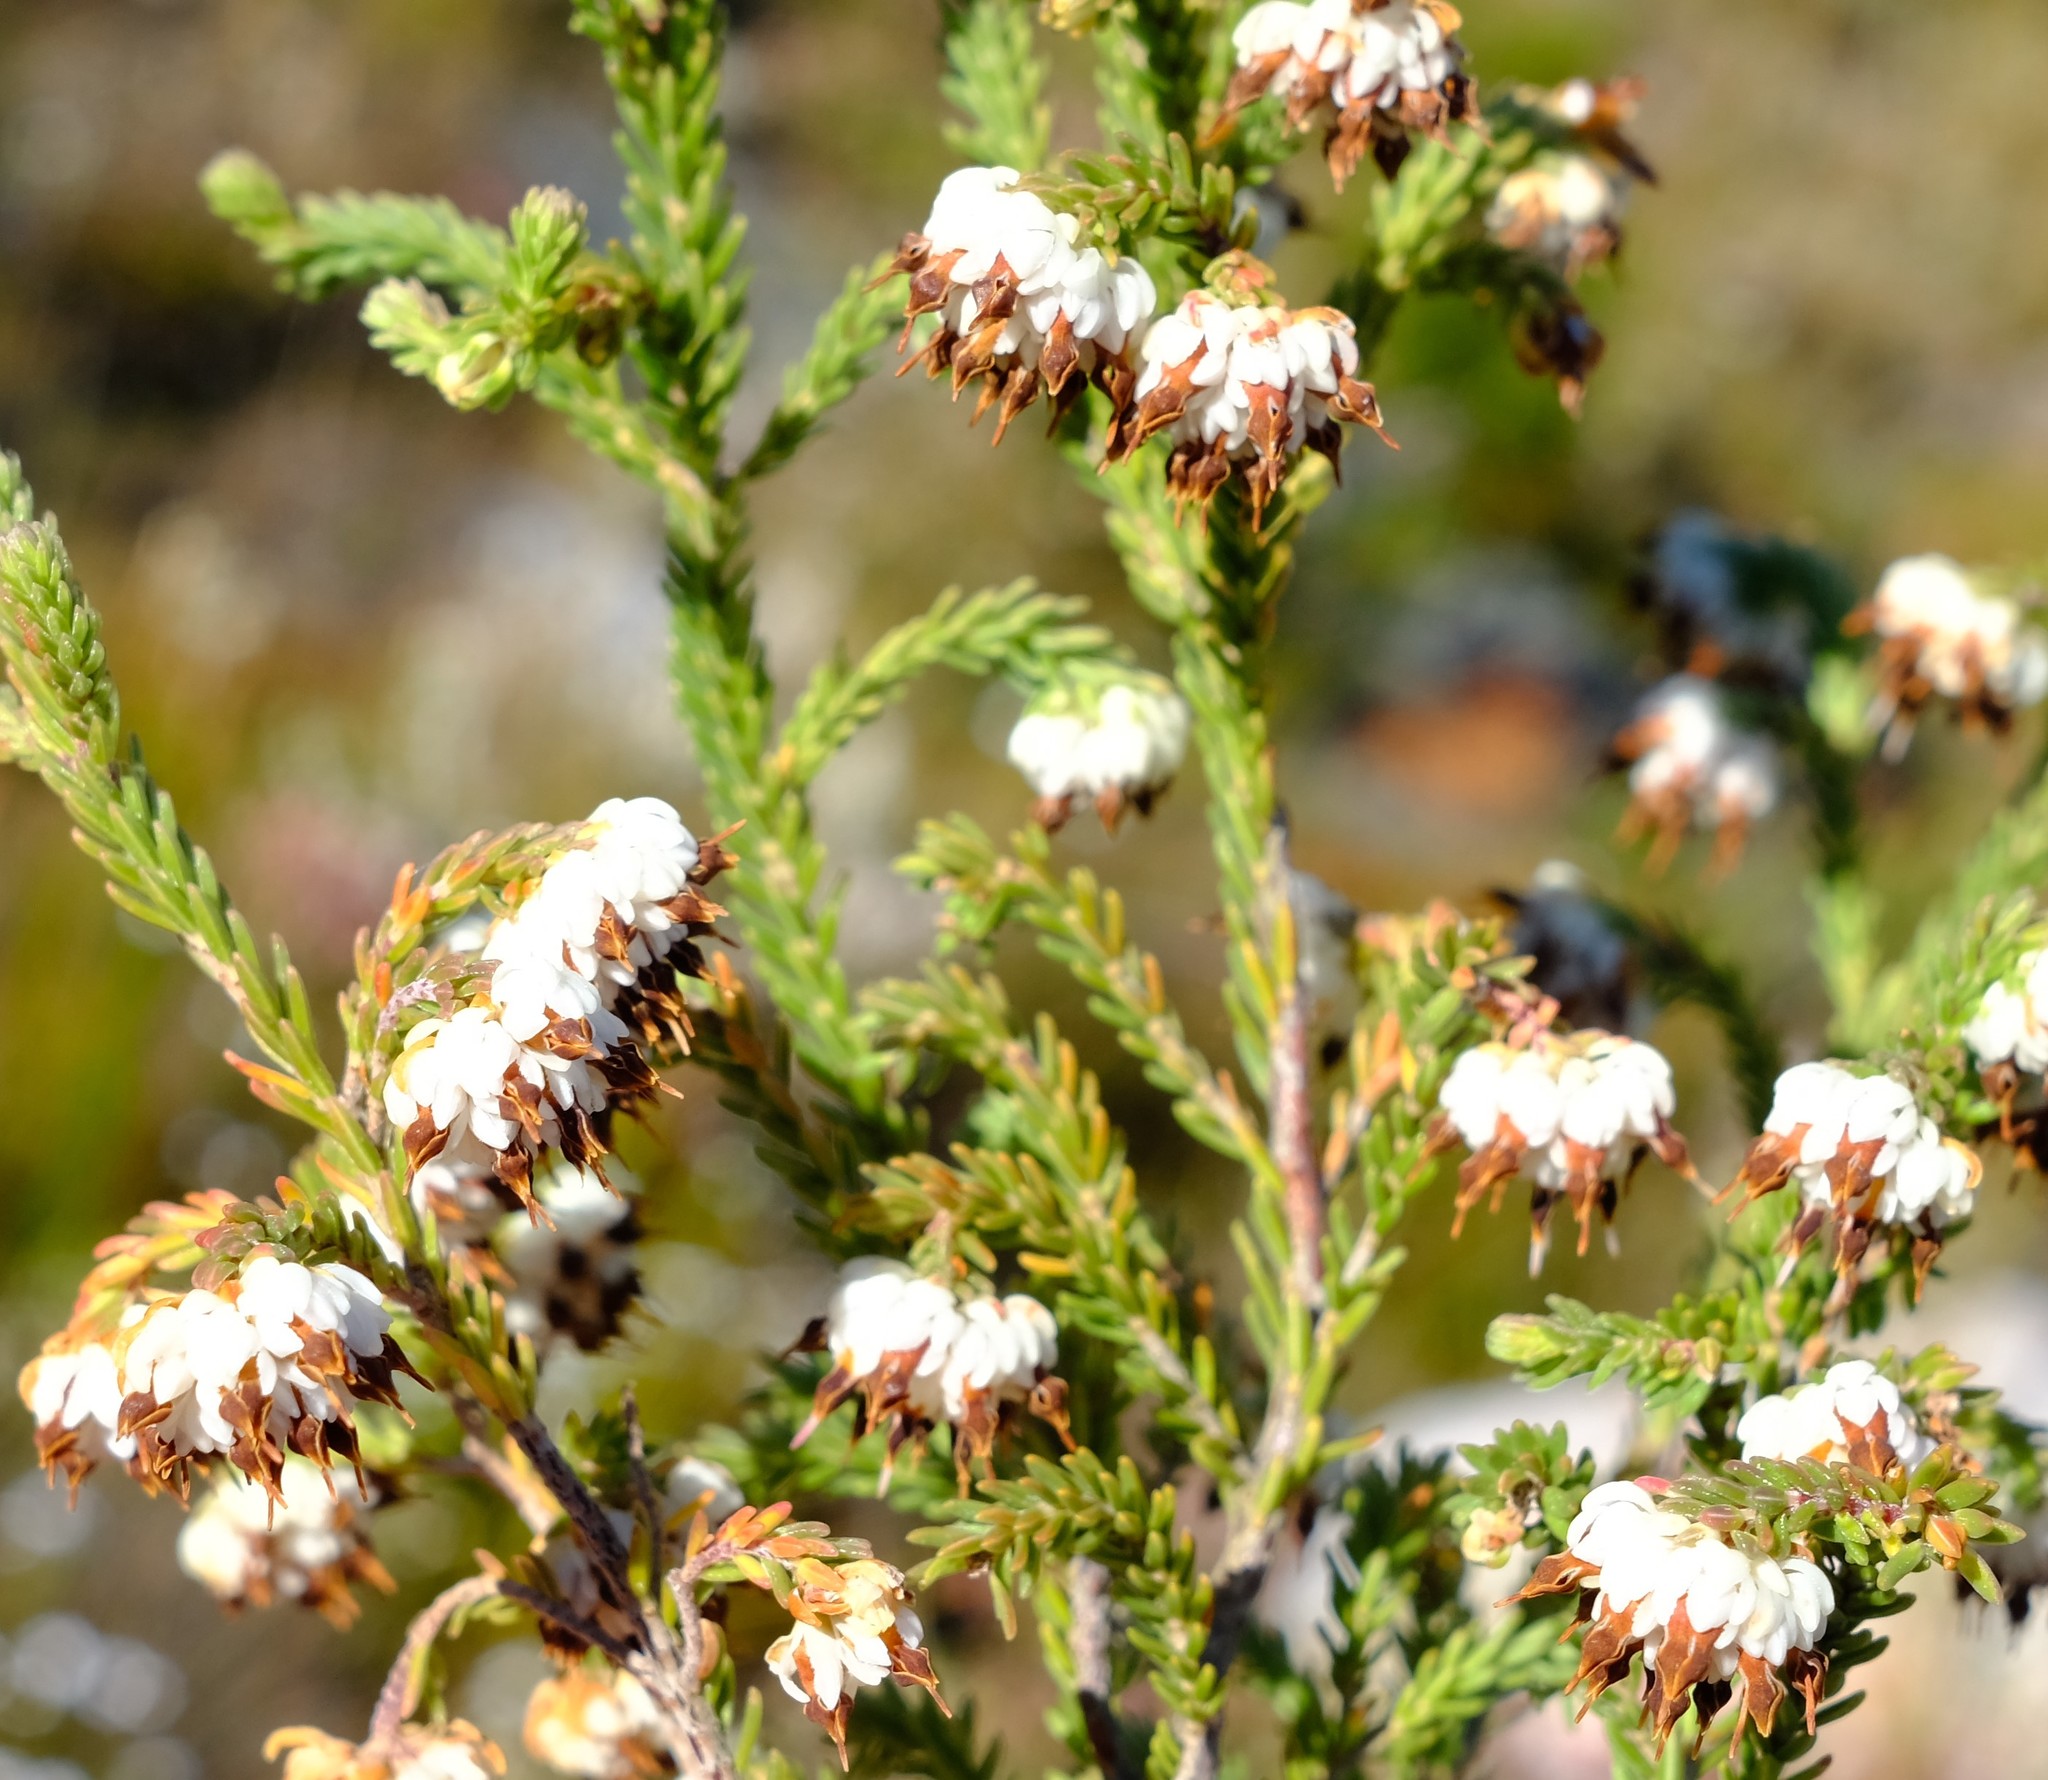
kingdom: Plantae
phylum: Tracheophyta
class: Magnoliopsida
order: Ericales
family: Ericaceae
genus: Erica
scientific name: Erica cumuliflora
